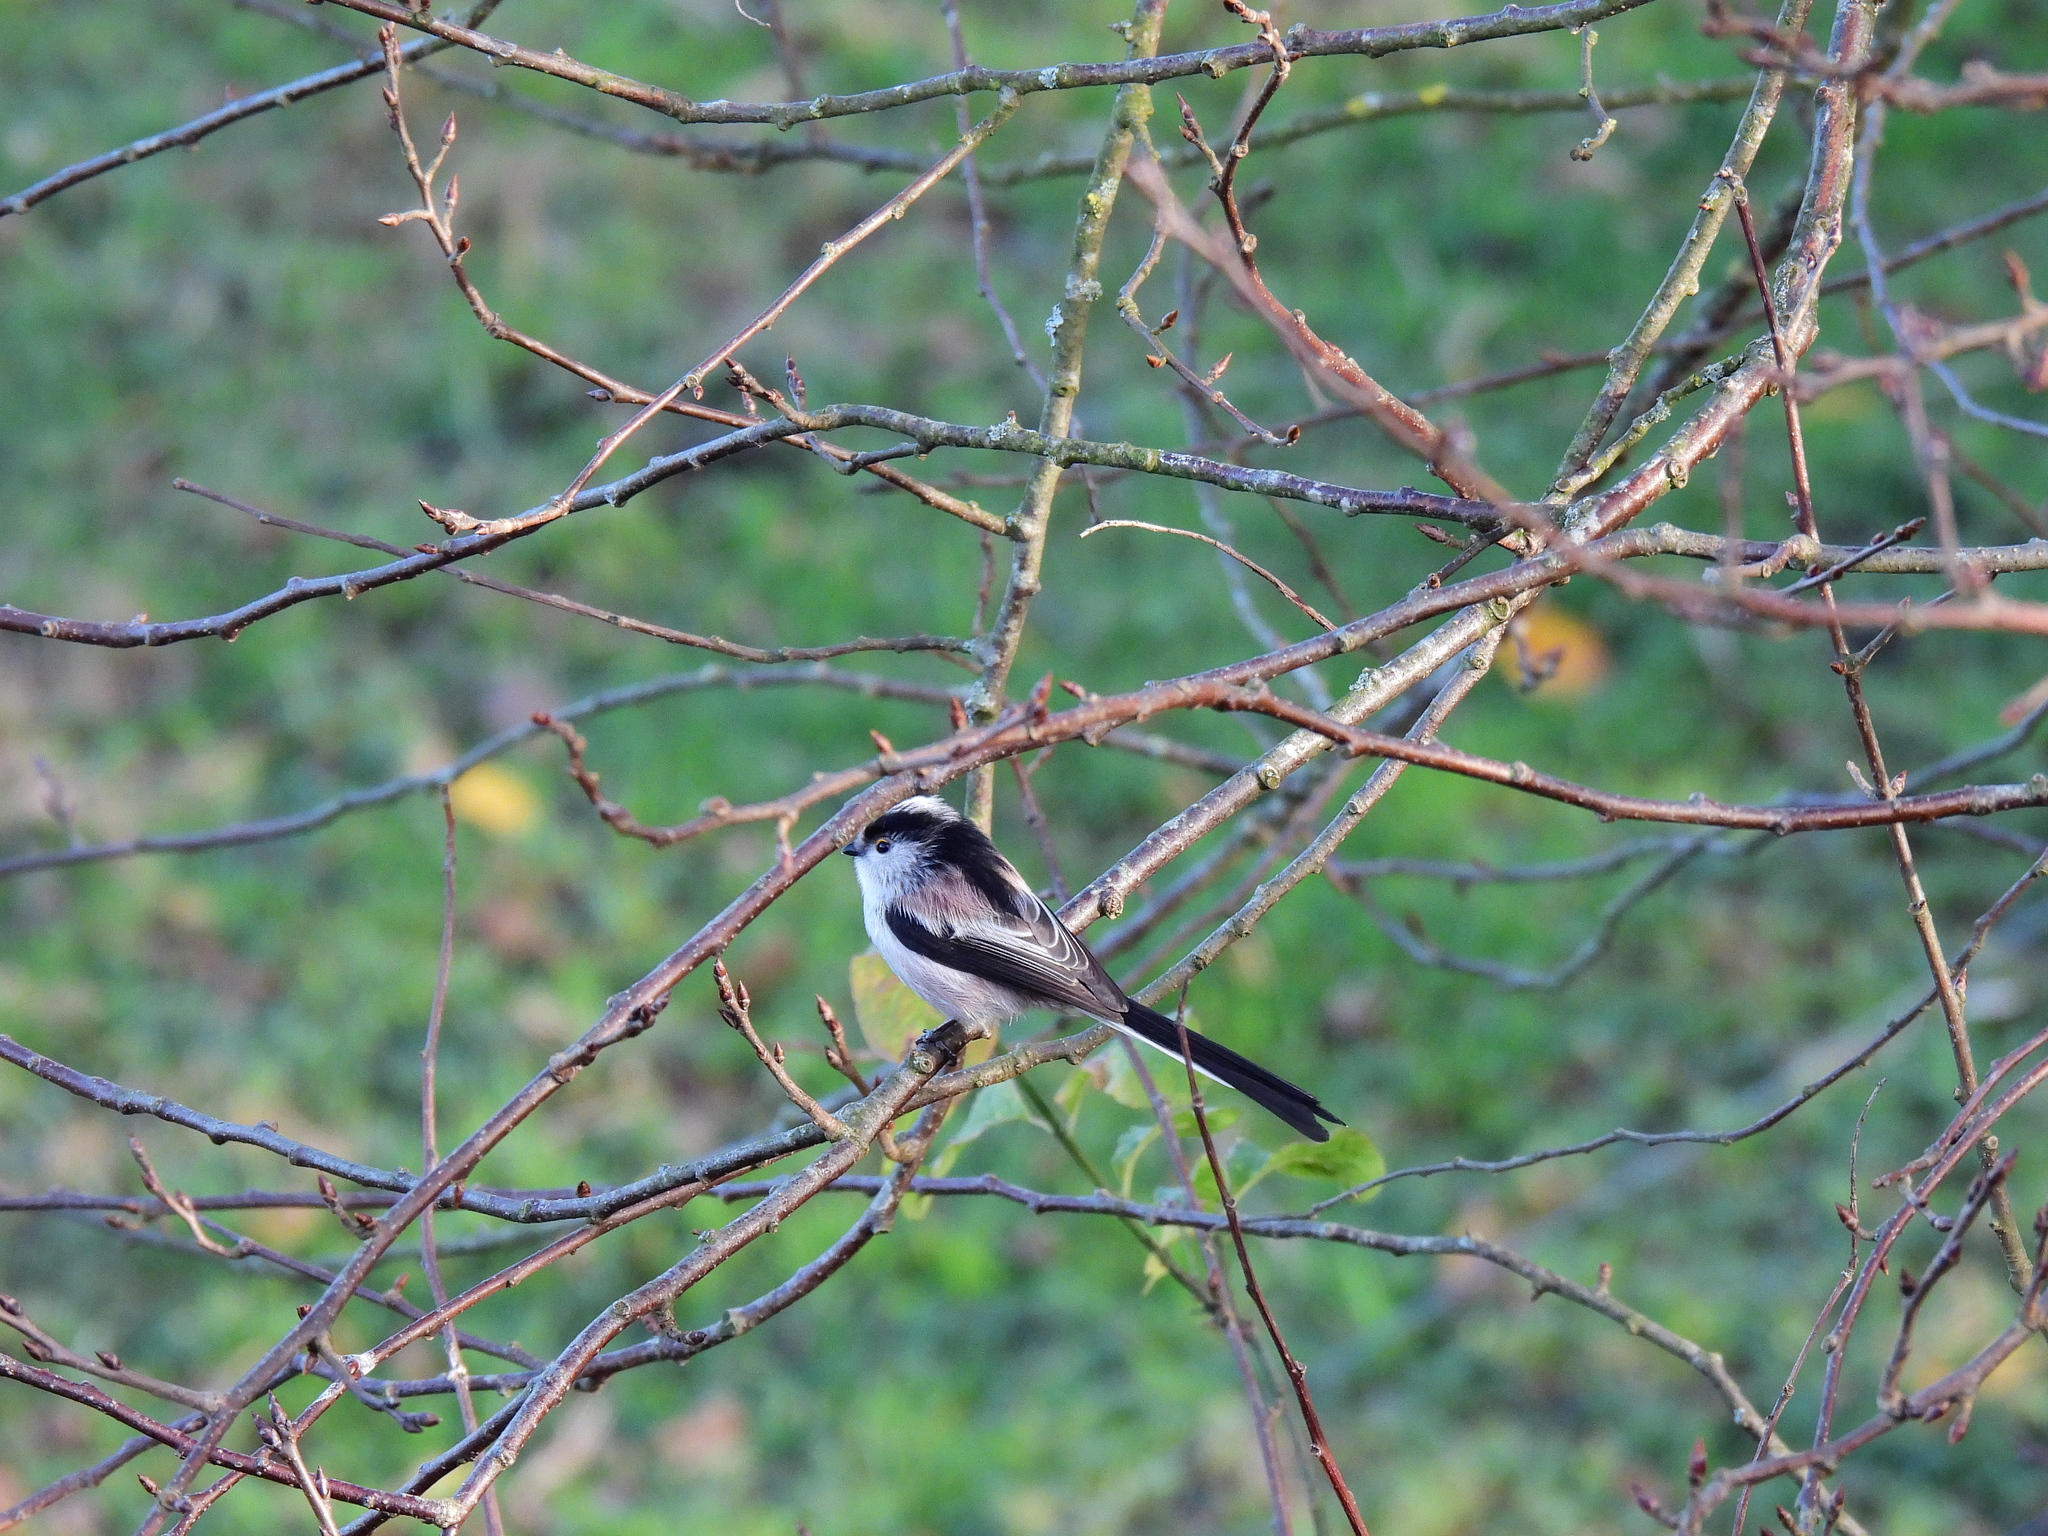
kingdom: Animalia
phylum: Chordata
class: Aves
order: Passeriformes
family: Aegithalidae
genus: Aegithalos
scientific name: Aegithalos caudatus
